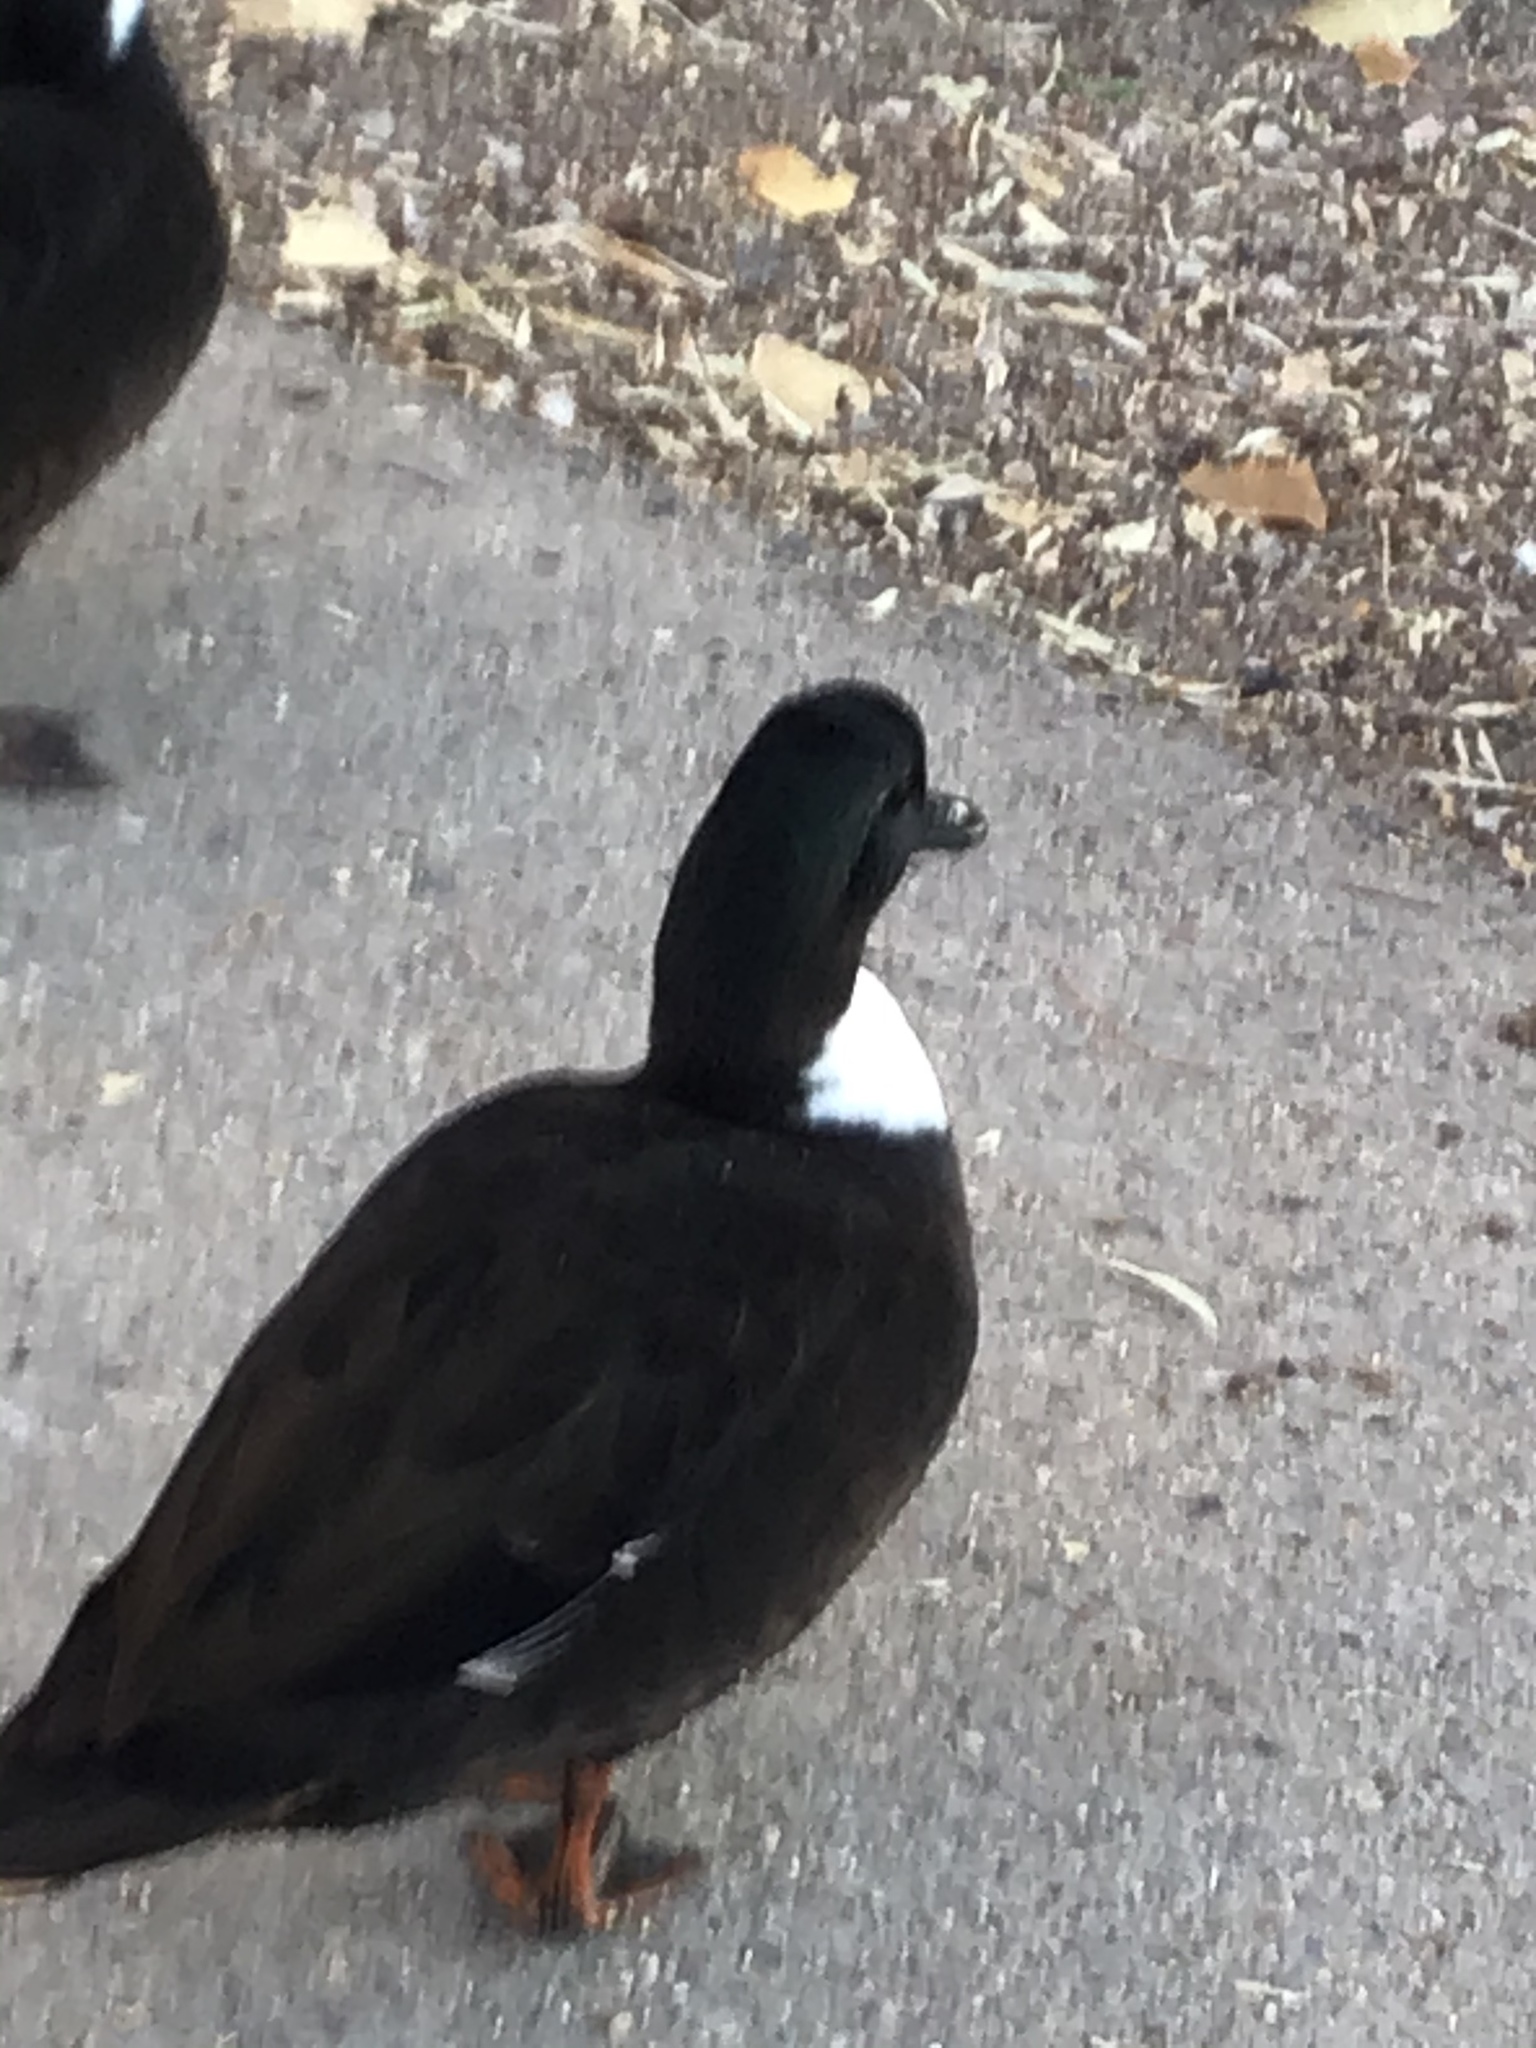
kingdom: Animalia
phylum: Chordata
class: Aves
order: Anseriformes
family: Anatidae
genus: Anas
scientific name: Anas platyrhynchos
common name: Mallard
